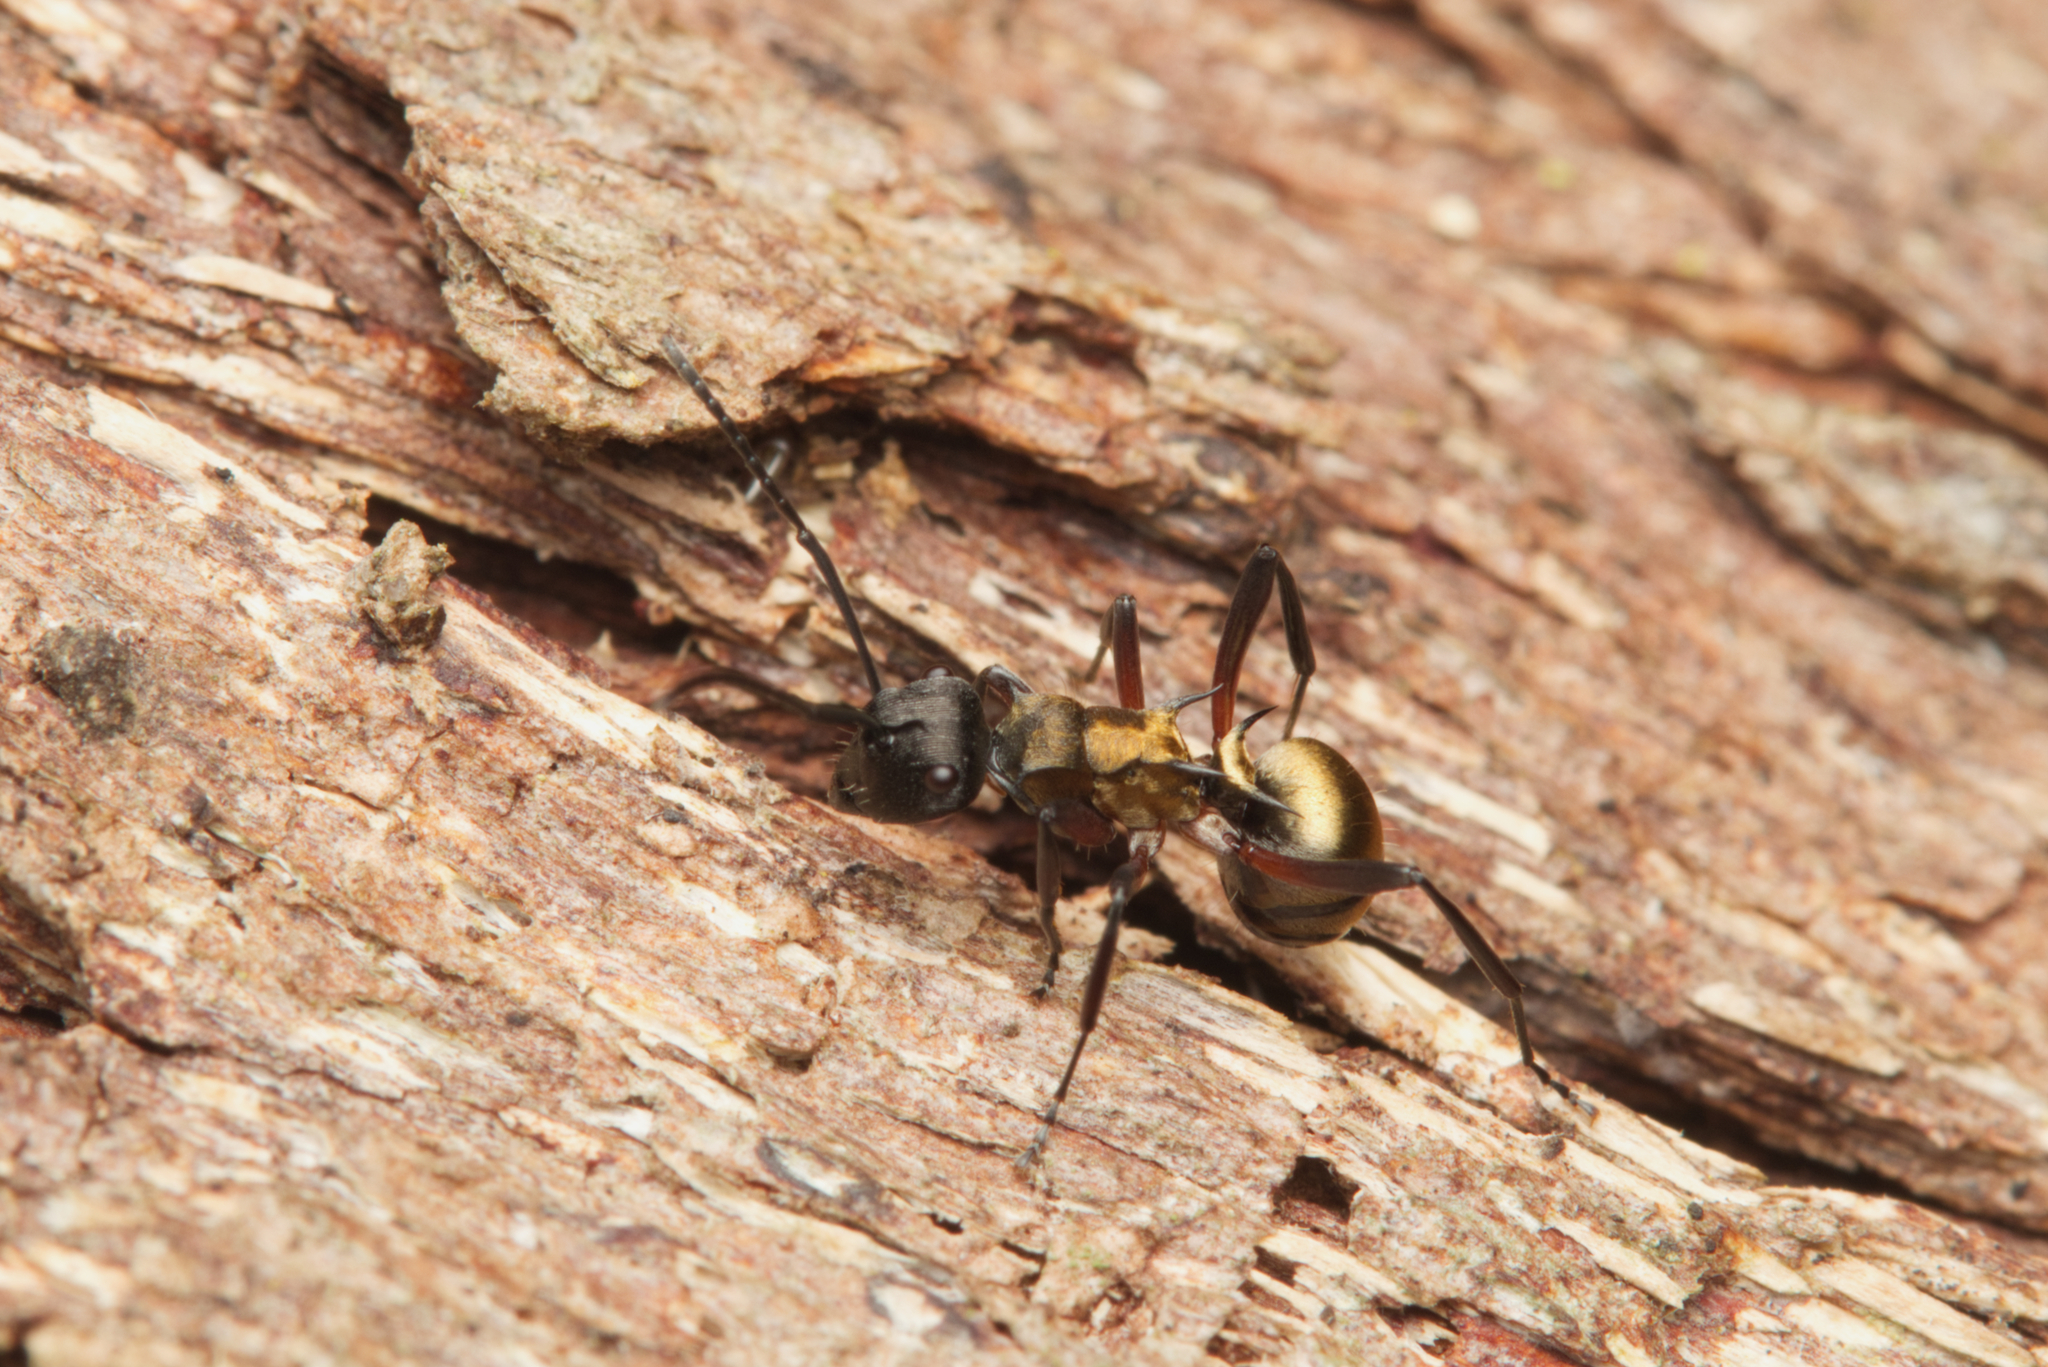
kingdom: Animalia
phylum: Arthropoda
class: Insecta
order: Hymenoptera
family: Formicidae
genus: Polyrhachis
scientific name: Polyrhachis rufifemur
